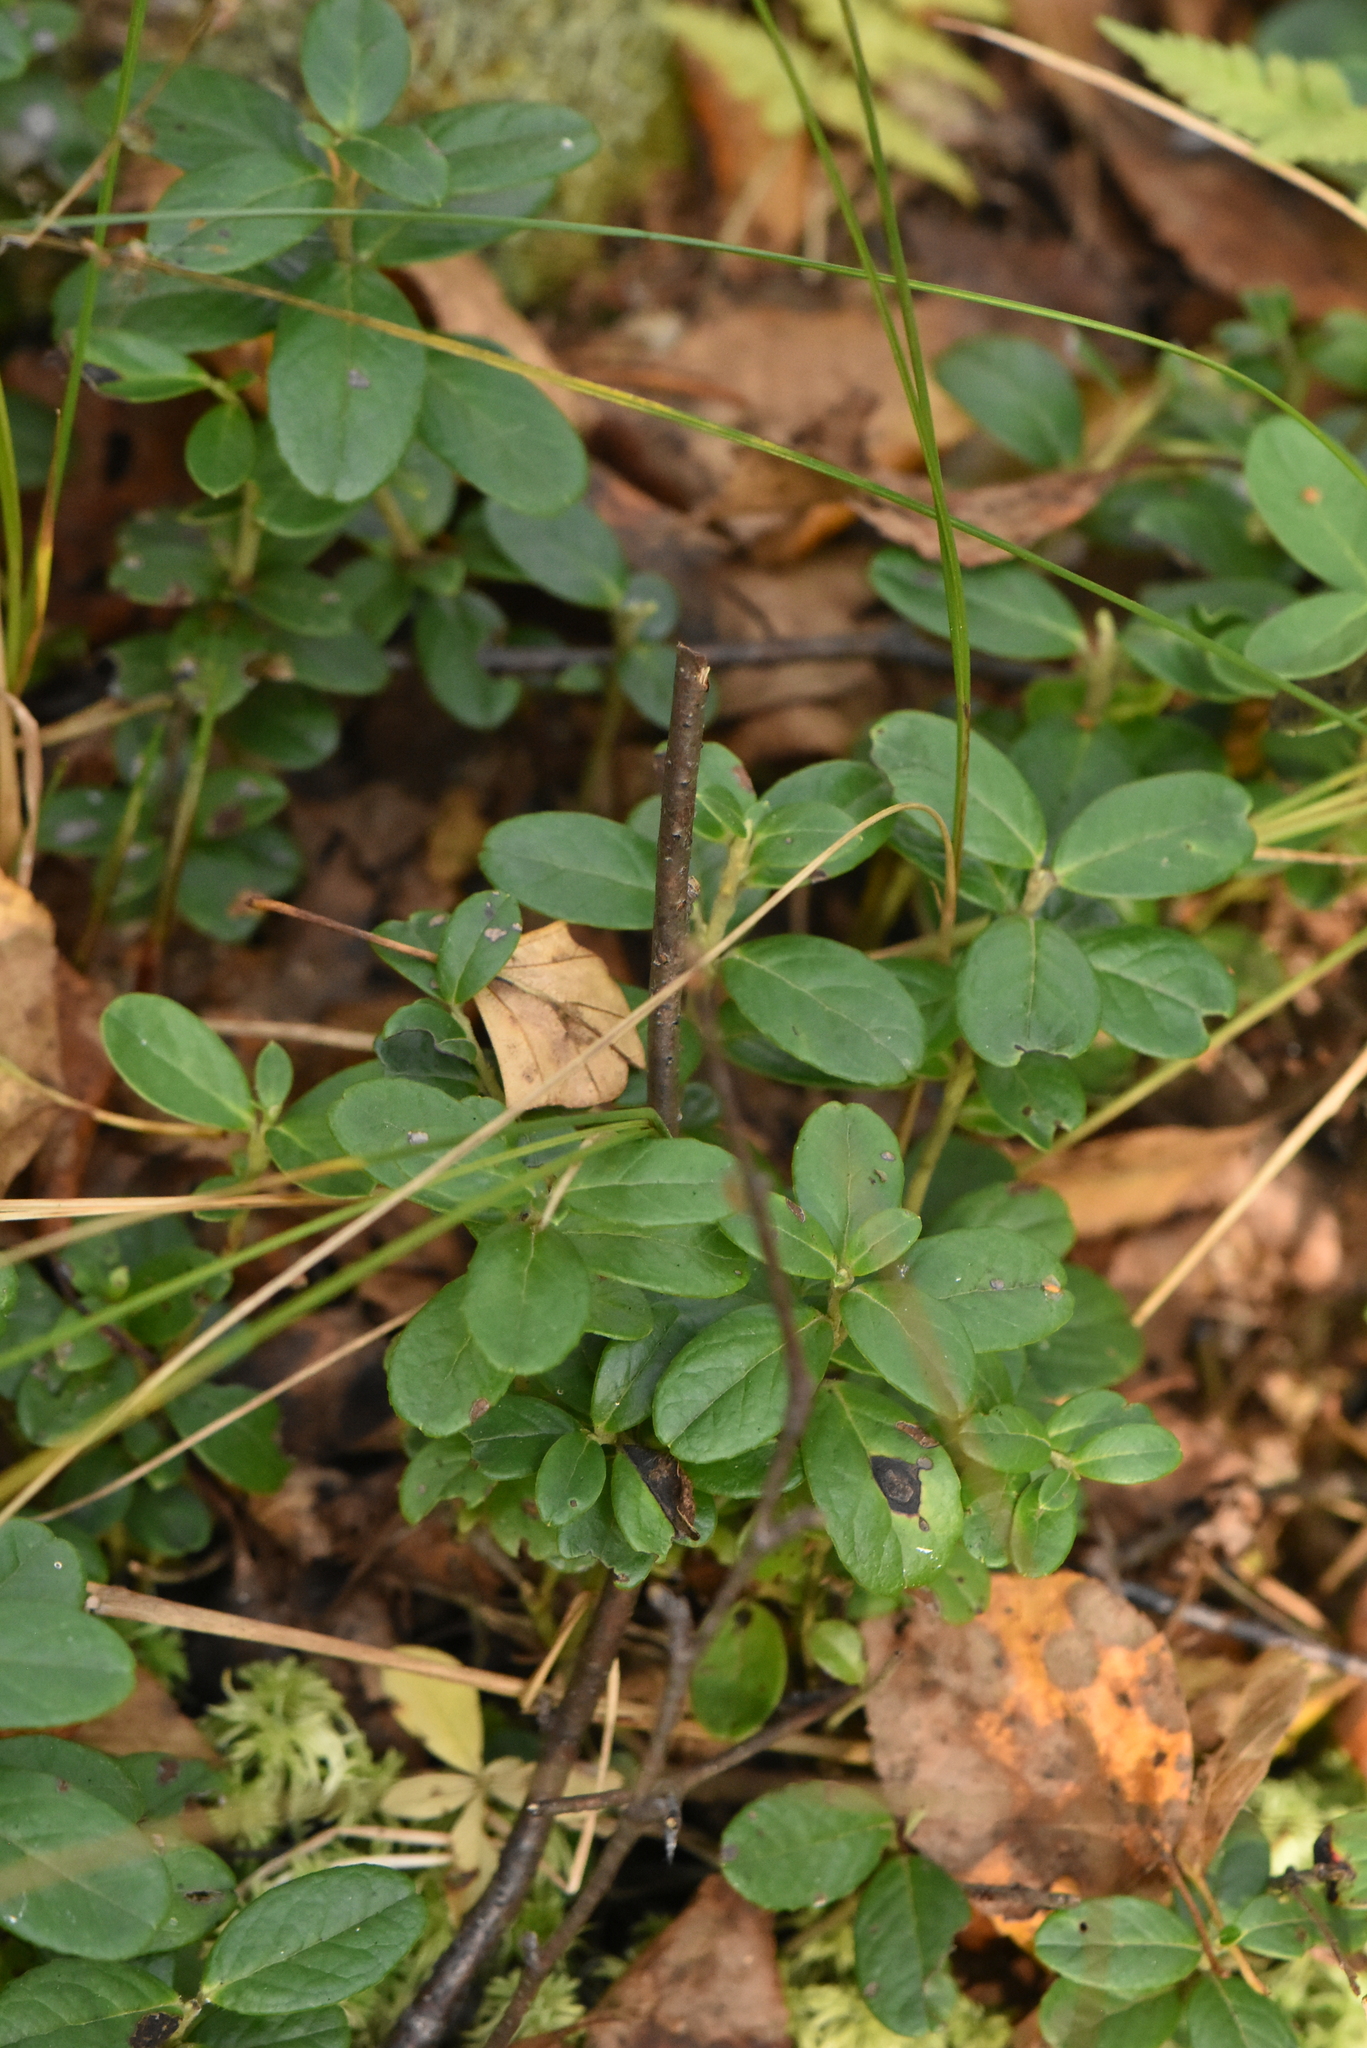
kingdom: Plantae
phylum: Tracheophyta
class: Magnoliopsida
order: Ericales
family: Ericaceae
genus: Vaccinium
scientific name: Vaccinium vitis-idaea
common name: Cowberry
